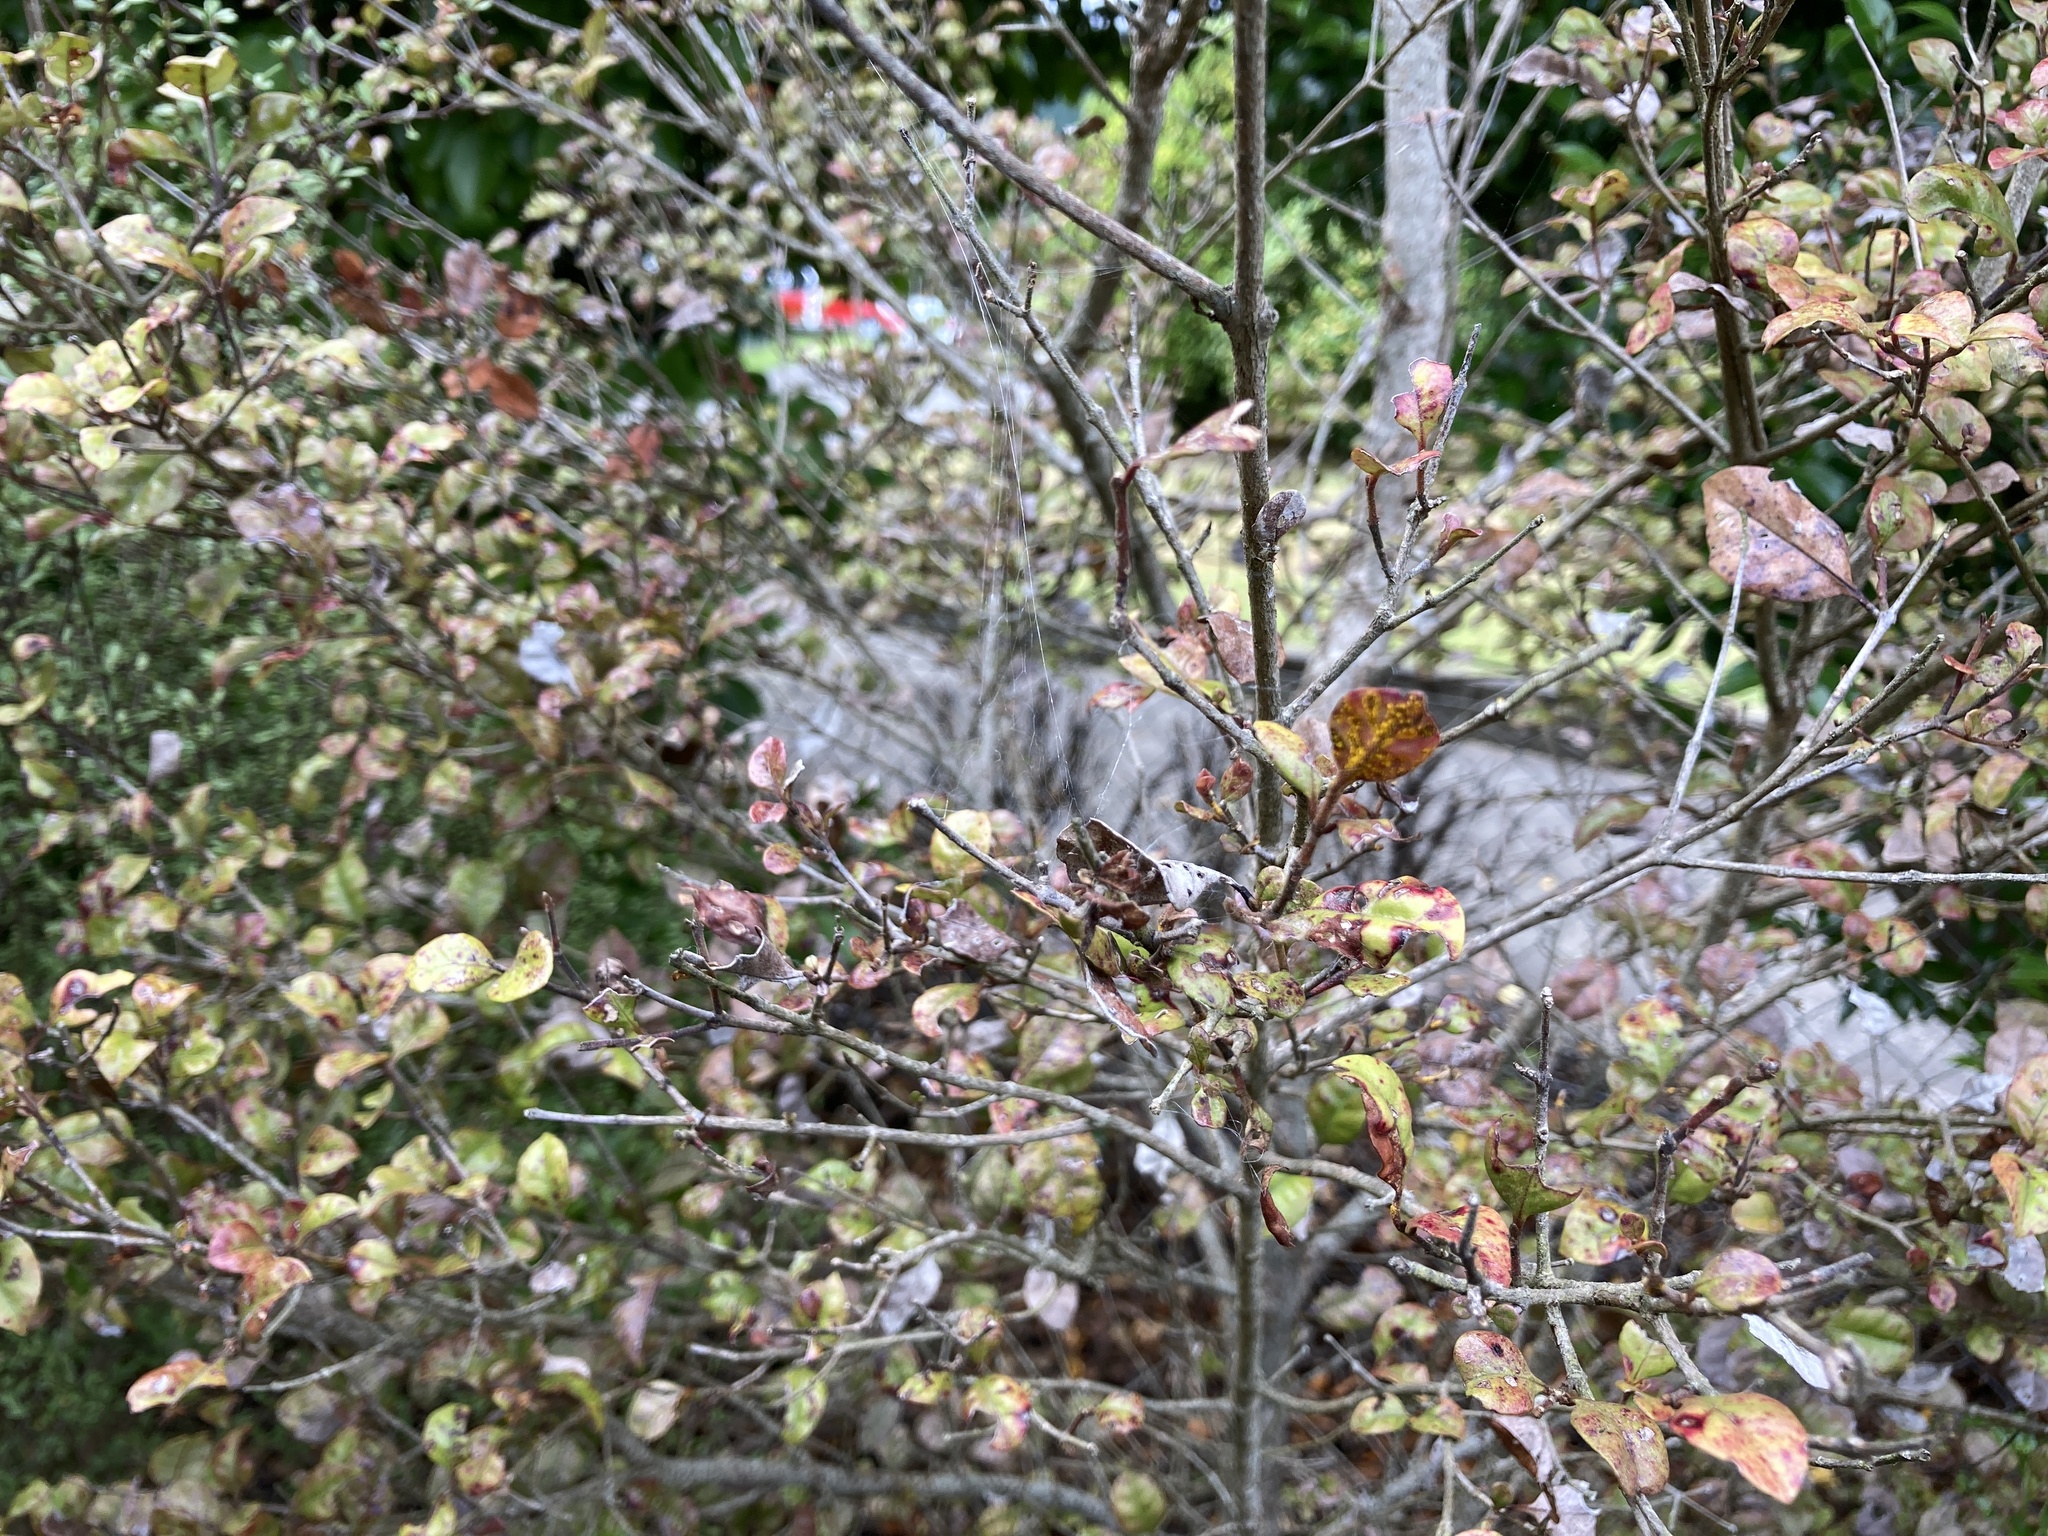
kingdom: Fungi
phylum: Basidiomycota
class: Pucciniomycetes
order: Pucciniales
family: Sphaerophragmiaceae
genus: Austropuccinia
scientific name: Austropuccinia psidii
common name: Myrtle rust
